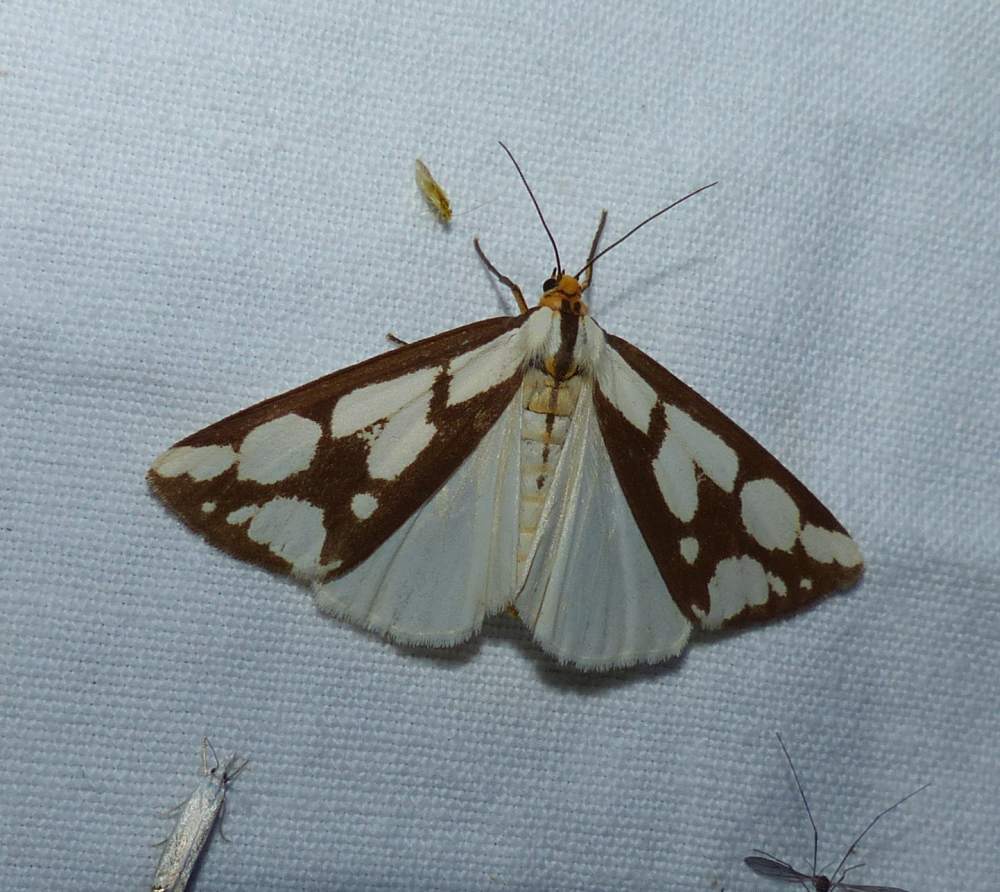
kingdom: Animalia
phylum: Arthropoda
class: Insecta
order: Lepidoptera
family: Erebidae
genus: Haploa
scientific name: Haploa confusa
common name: Confused haploa moth
